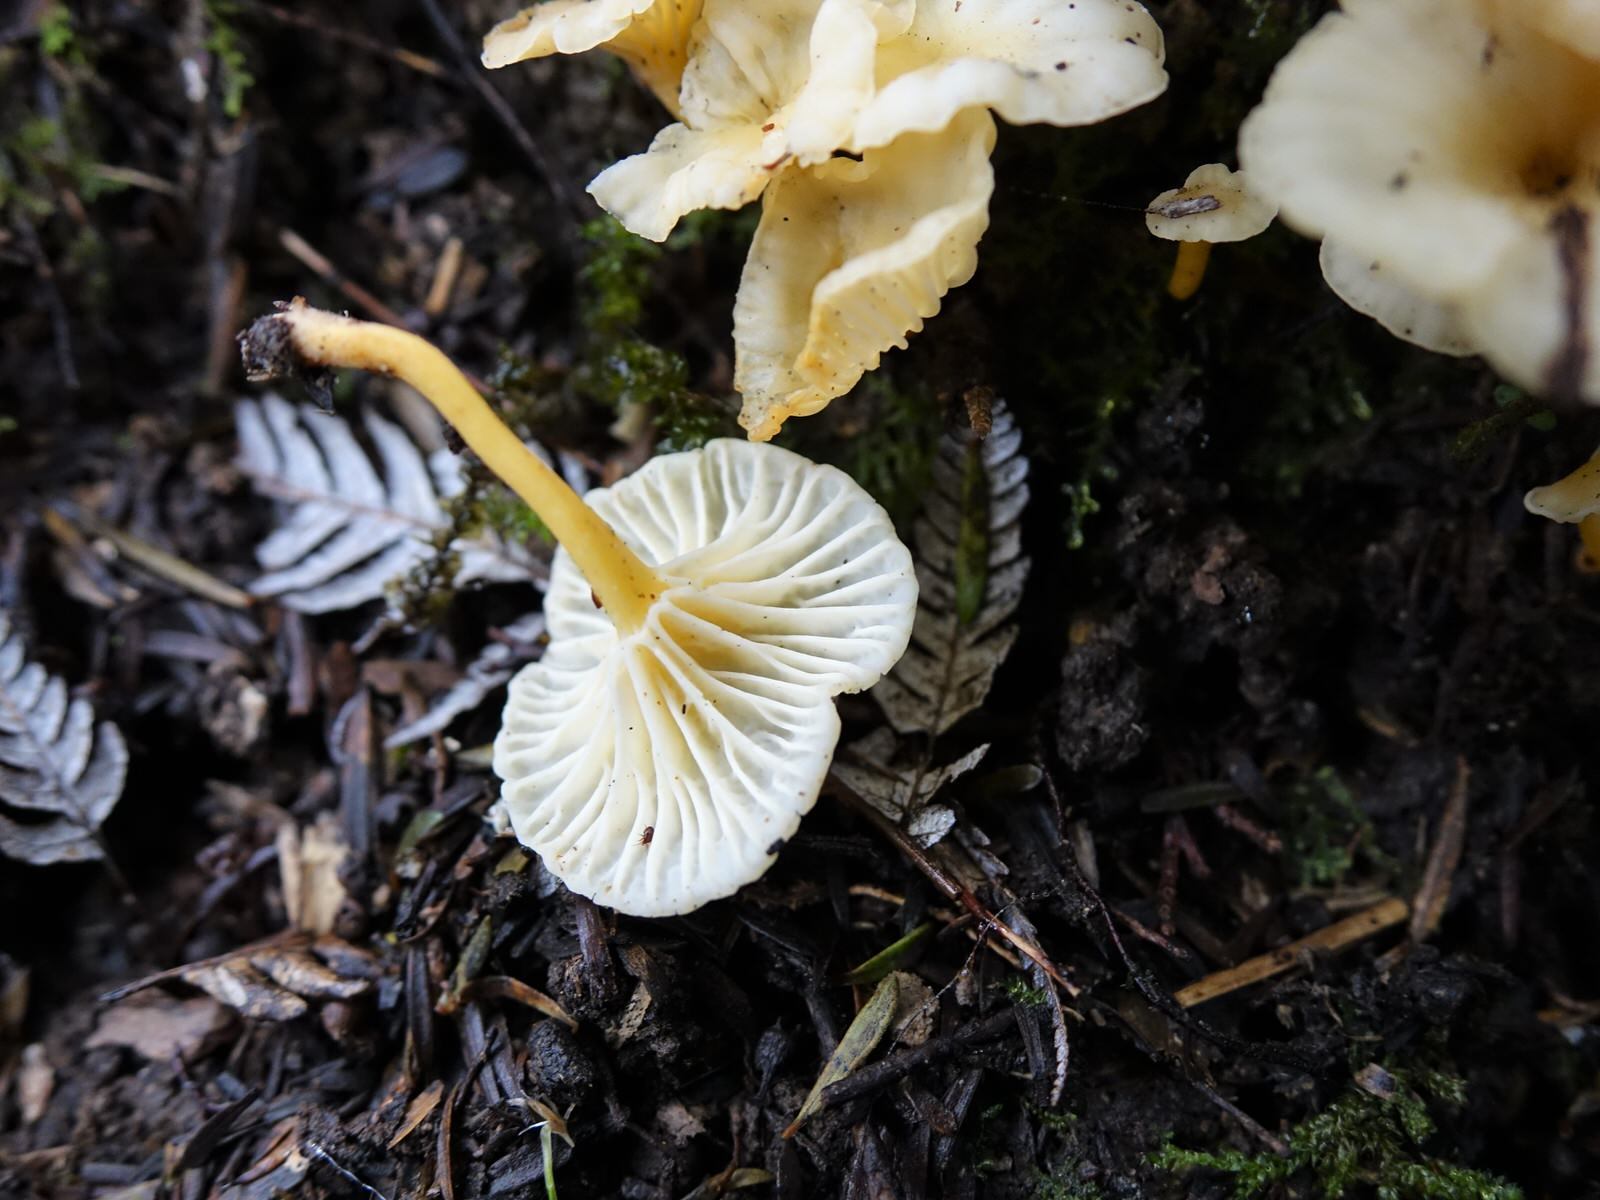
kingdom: Fungi
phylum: Basidiomycota
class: Agaricomycetes
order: Cantharellales
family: Hydnaceae
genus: Cantharellus
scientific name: Cantharellus wellingtonensis
